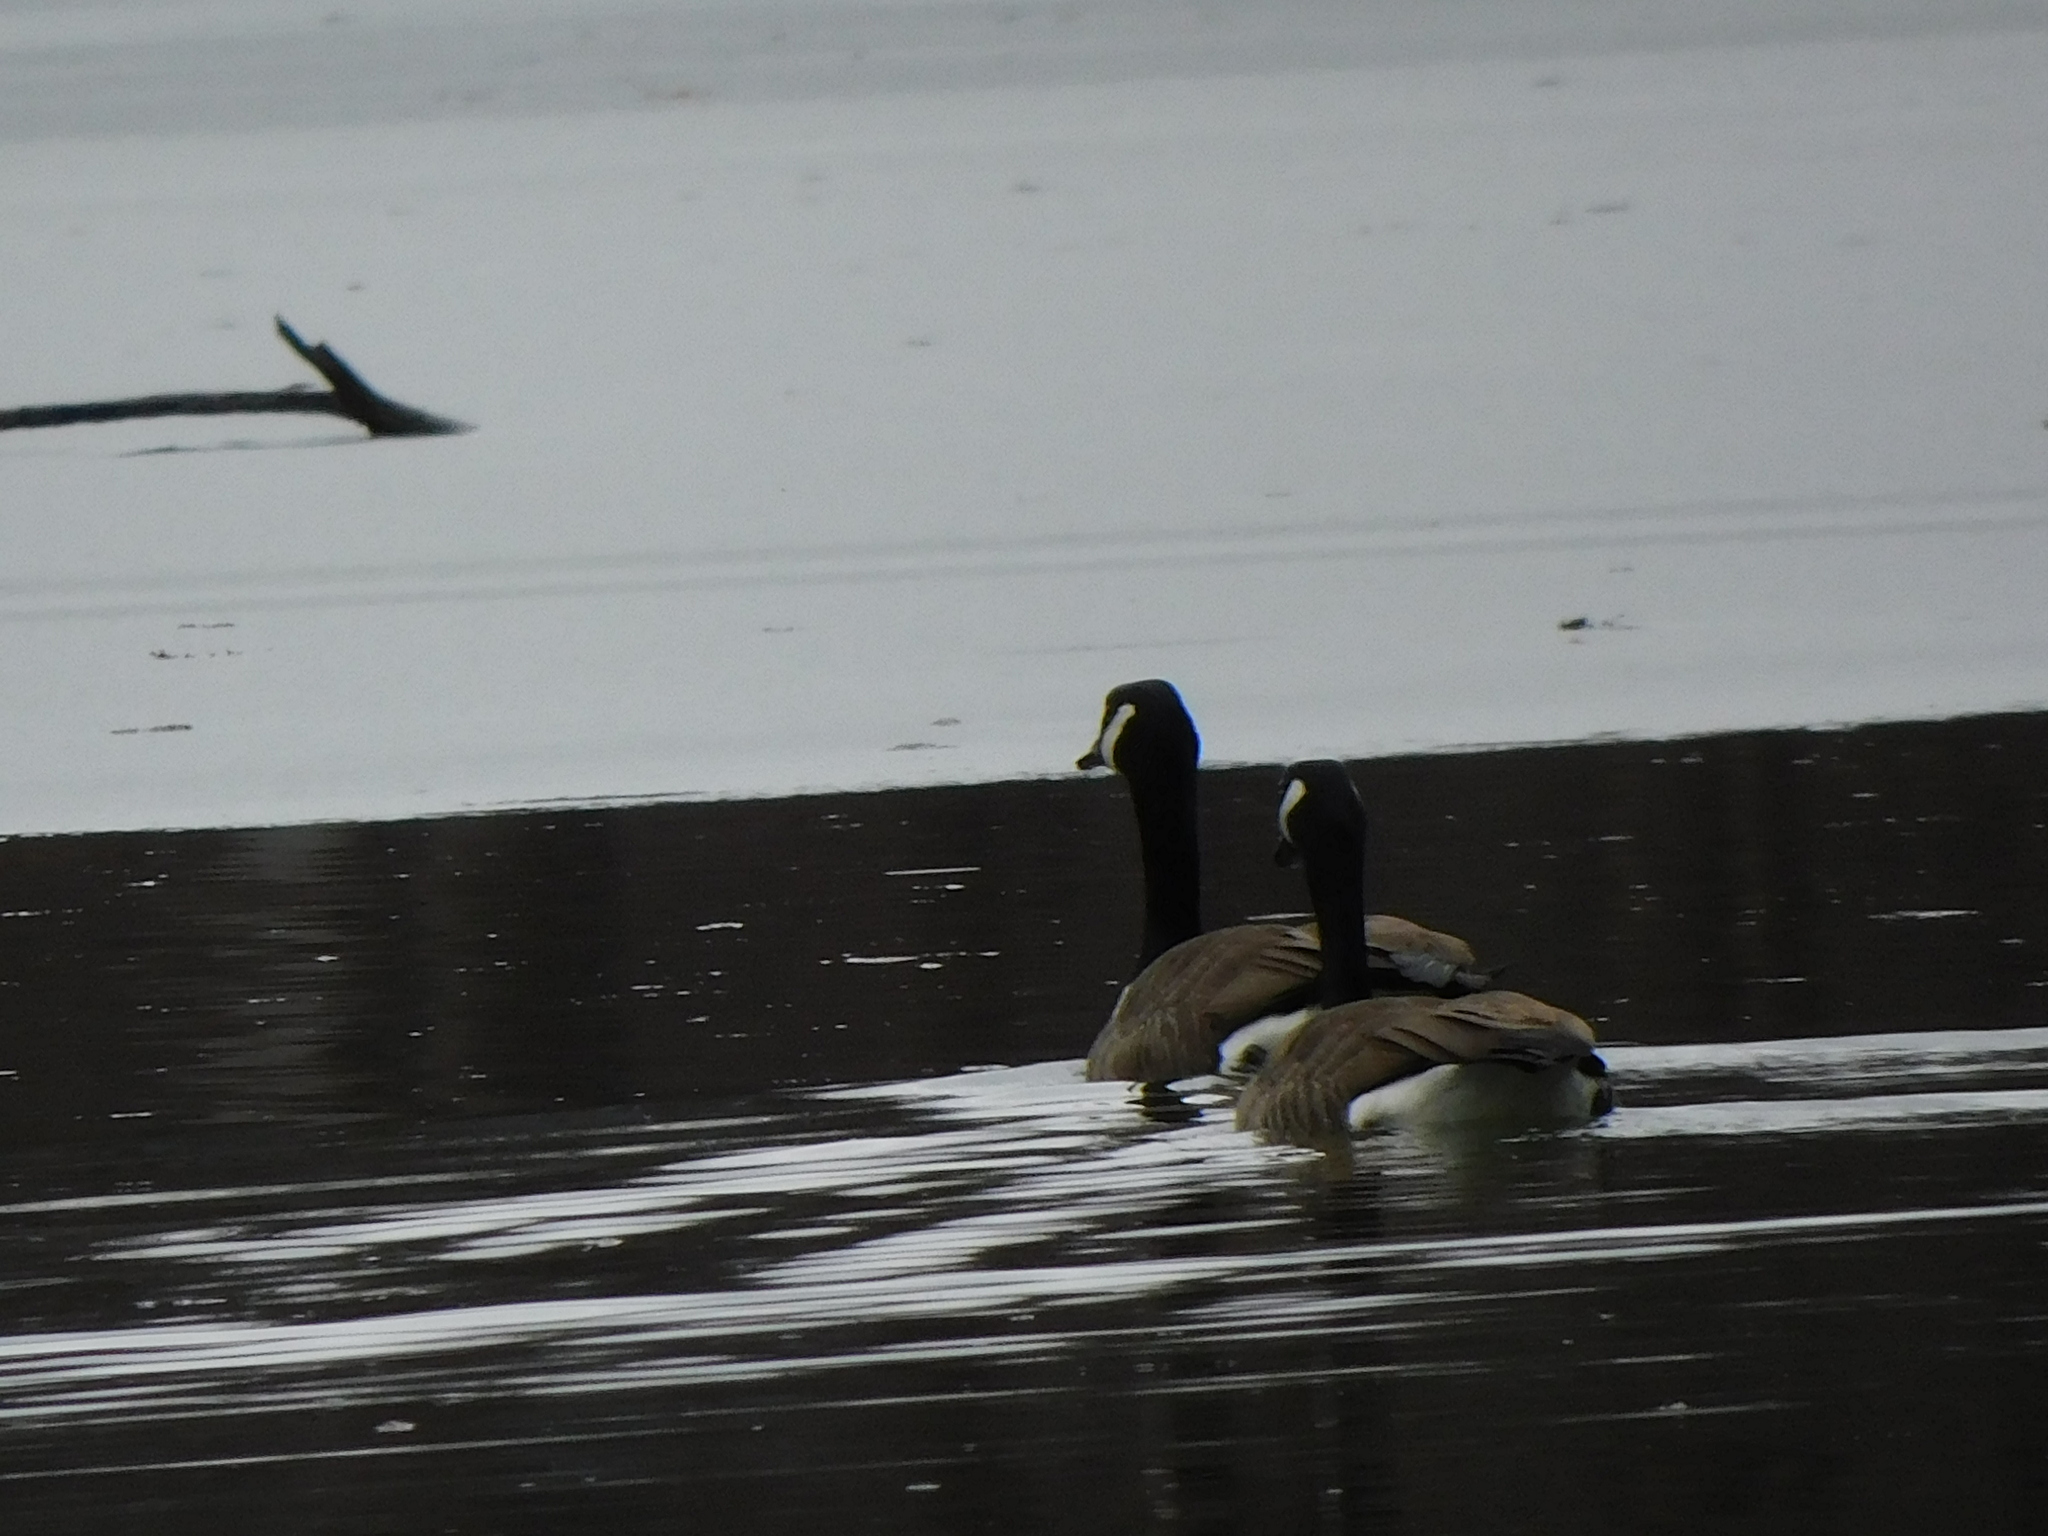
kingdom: Animalia
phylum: Chordata
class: Aves
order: Anseriformes
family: Anatidae
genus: Branta
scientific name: Branta canadensis
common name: Canada goose
